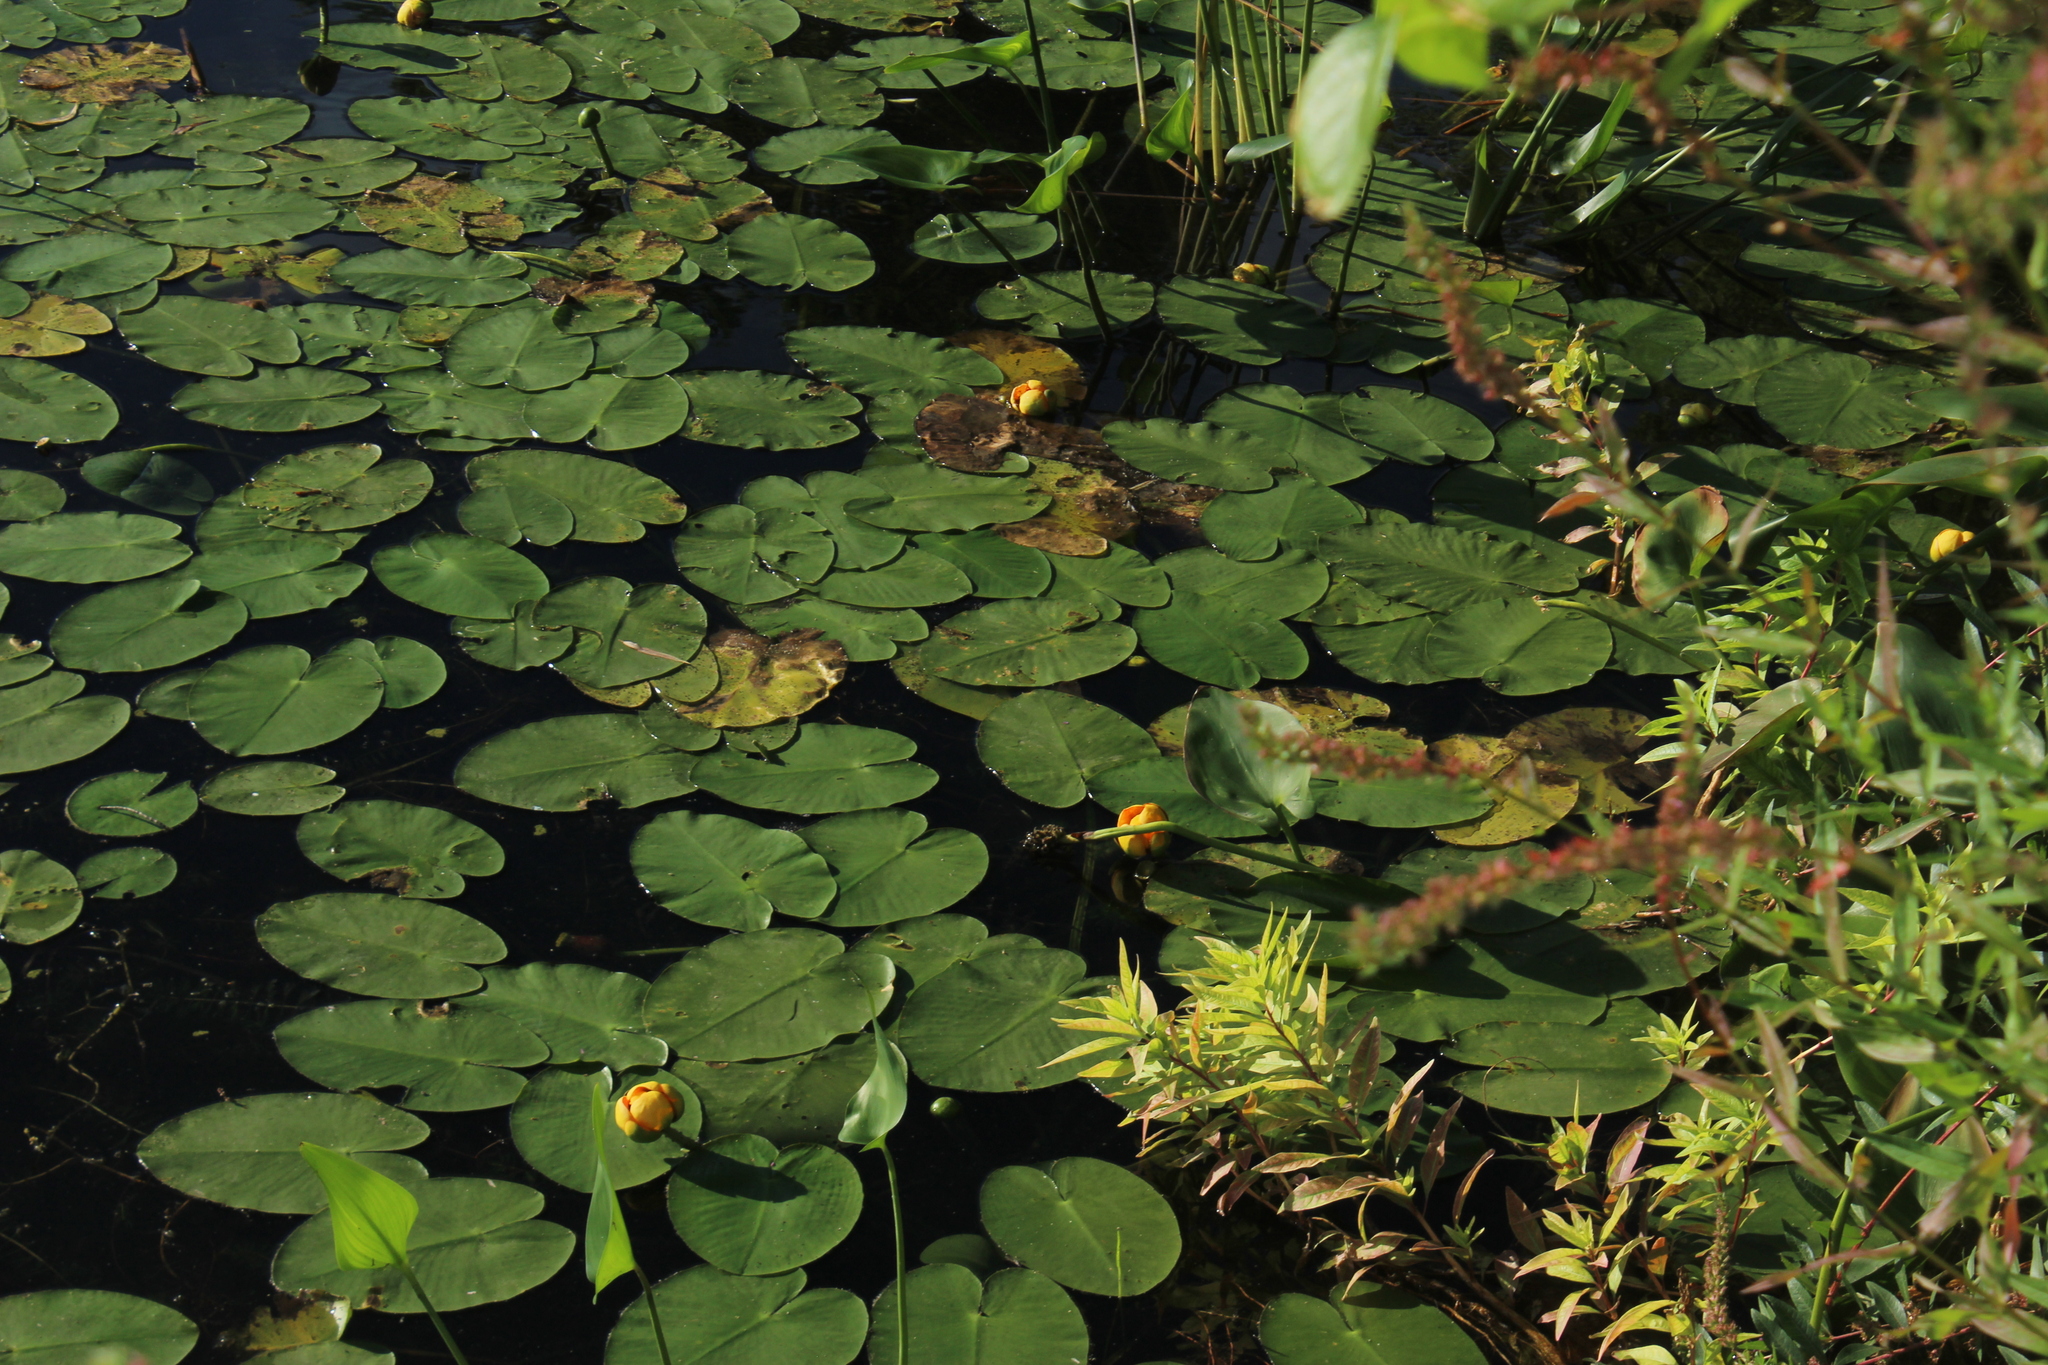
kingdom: Plantae
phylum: Tracheophyta
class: Magnoliopsida
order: Nymphaeales
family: Nymphaeaceae
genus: Nuphar
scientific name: Nuphar variegata
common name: Beaver-root
